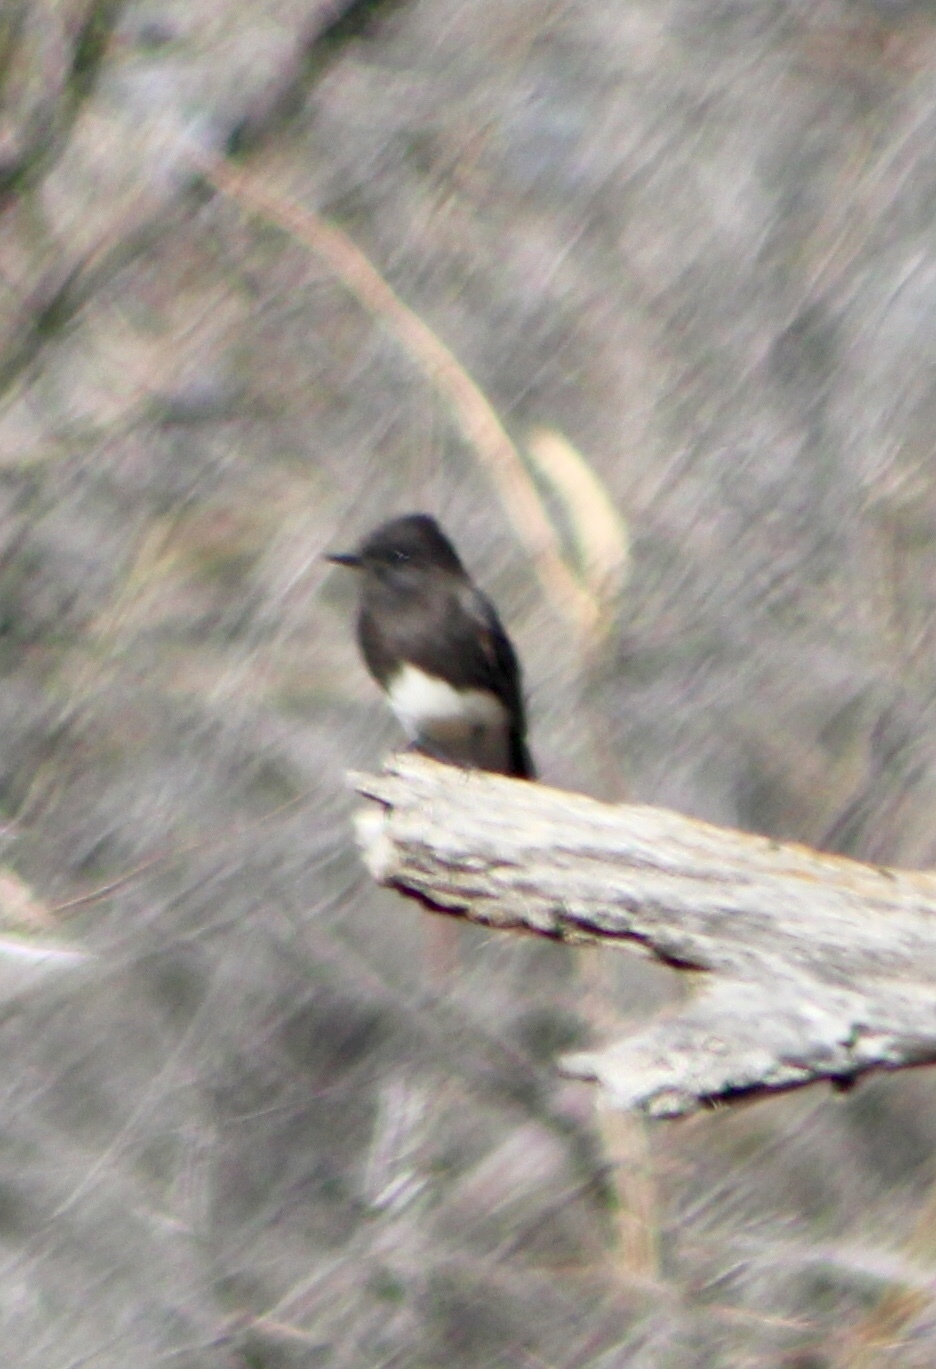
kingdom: Animalia
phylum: Chordata
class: Aves
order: Passeriformes
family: Tyrannidae
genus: Sayornis
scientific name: Sayornis nigricans
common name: Black phoebe
